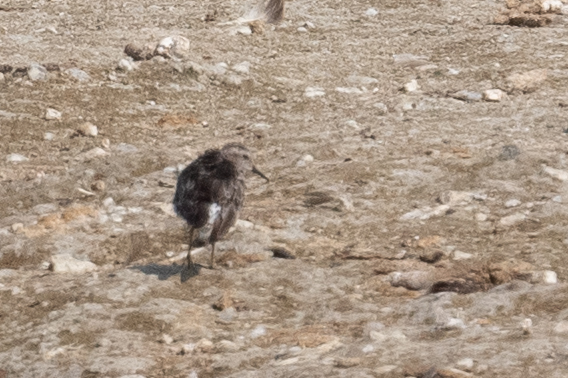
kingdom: Animalia
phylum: Chordata
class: Aves
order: Charadriiformes
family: Scolopacidae
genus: Calidris
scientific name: Calidris minutilla
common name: Least sandpiper
